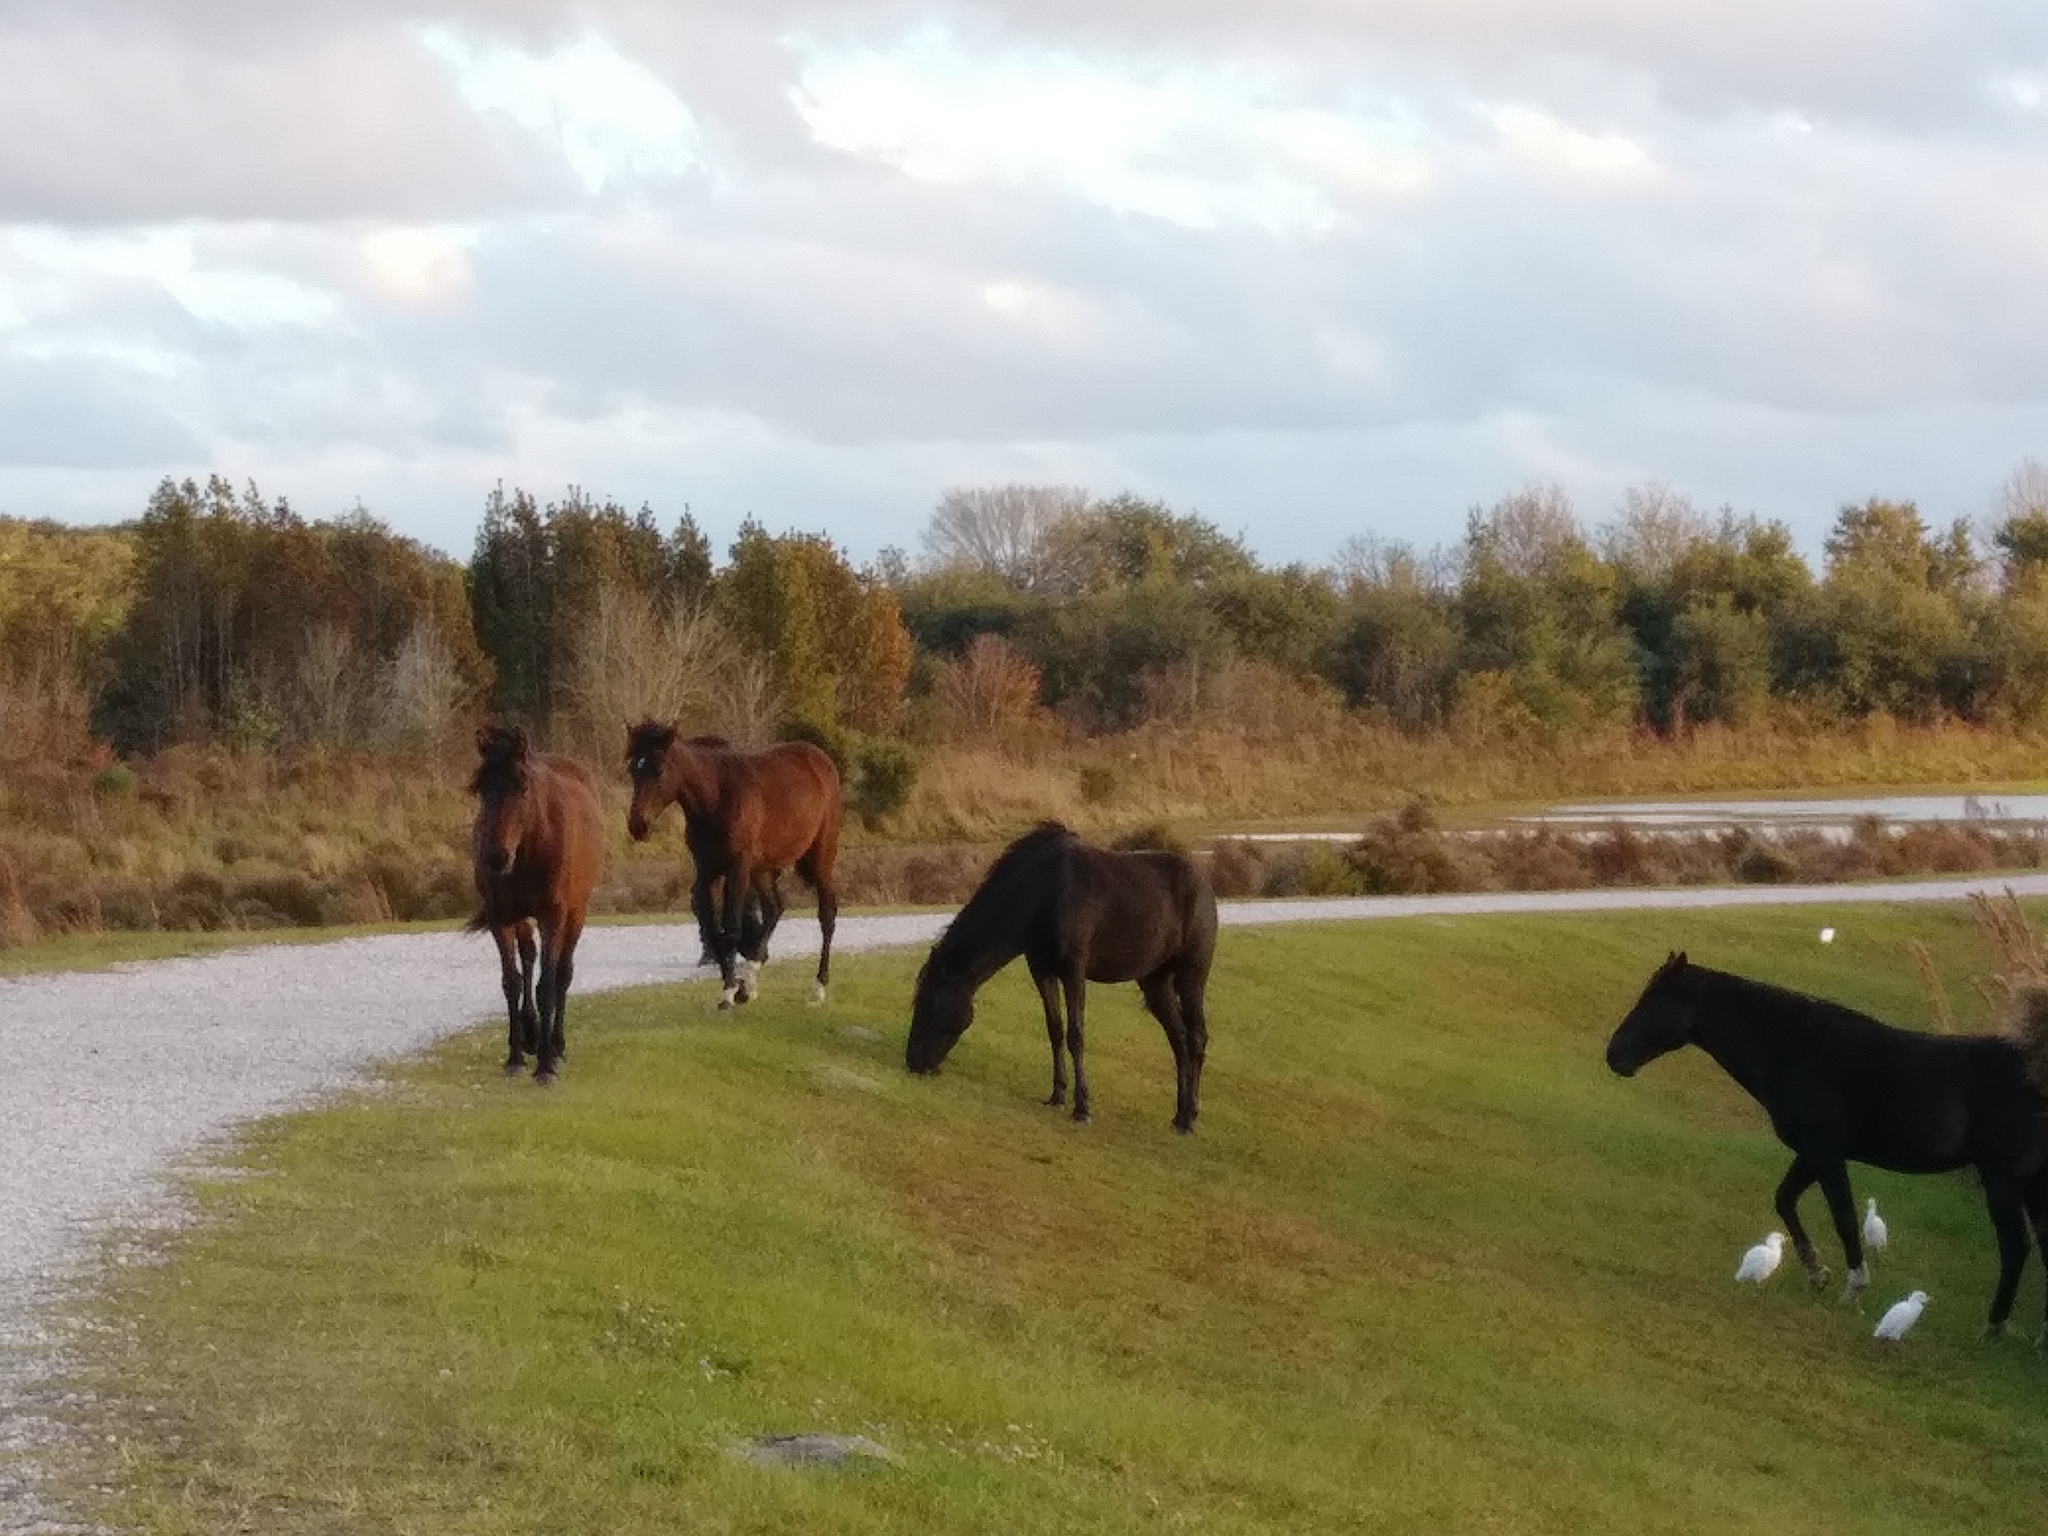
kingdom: Animalia
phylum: Chordata
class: Mammalia
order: Perissodactyla
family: Equidae
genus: Equus
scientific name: Equus caballus
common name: Horse
